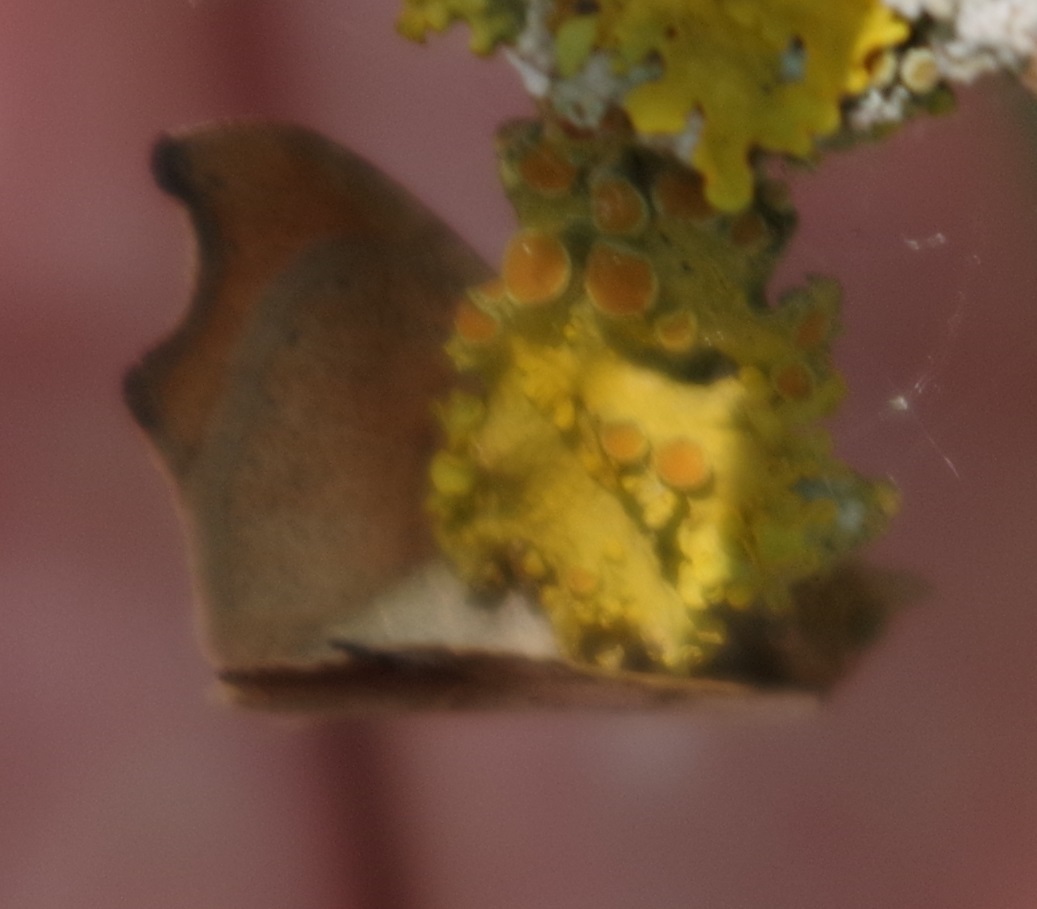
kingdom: Animalia
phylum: Arthropoda
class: Insecta
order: Lepidoptera
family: Erebidae
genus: Laspeyria
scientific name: Laspeyria flexula
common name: Beautiful hook-tip
